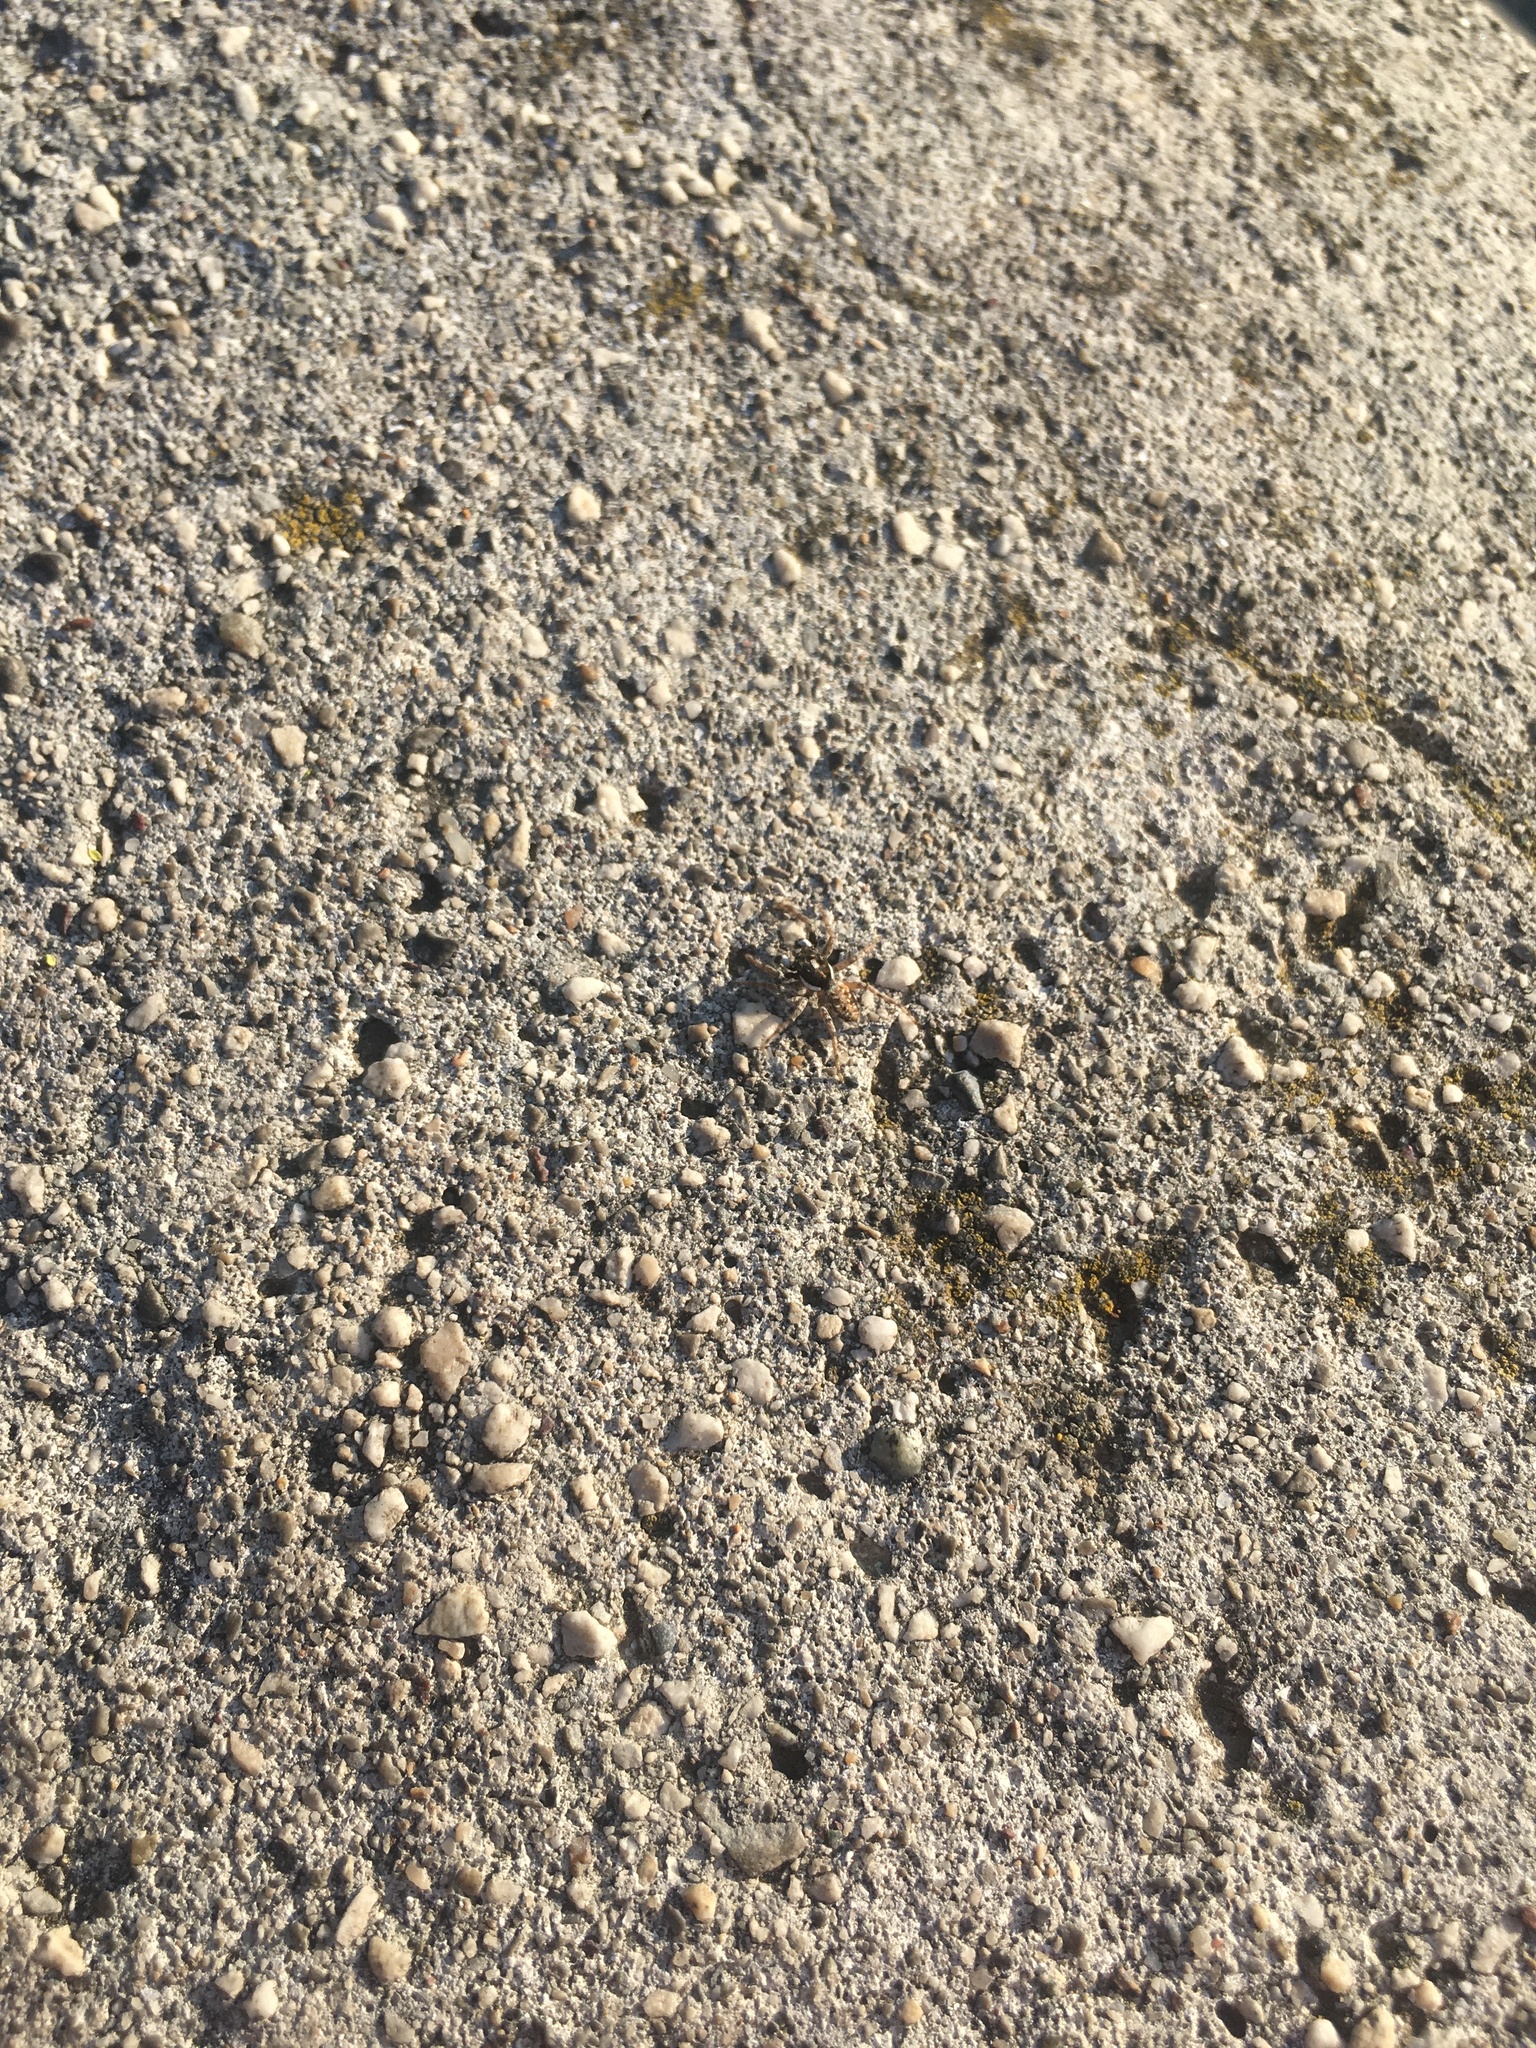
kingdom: Animalia
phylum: Arthropoda
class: Arachnida
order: Araneae
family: Salticidae
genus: Menemerus
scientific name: Menemerus semilimbatus
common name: Jumping spider
